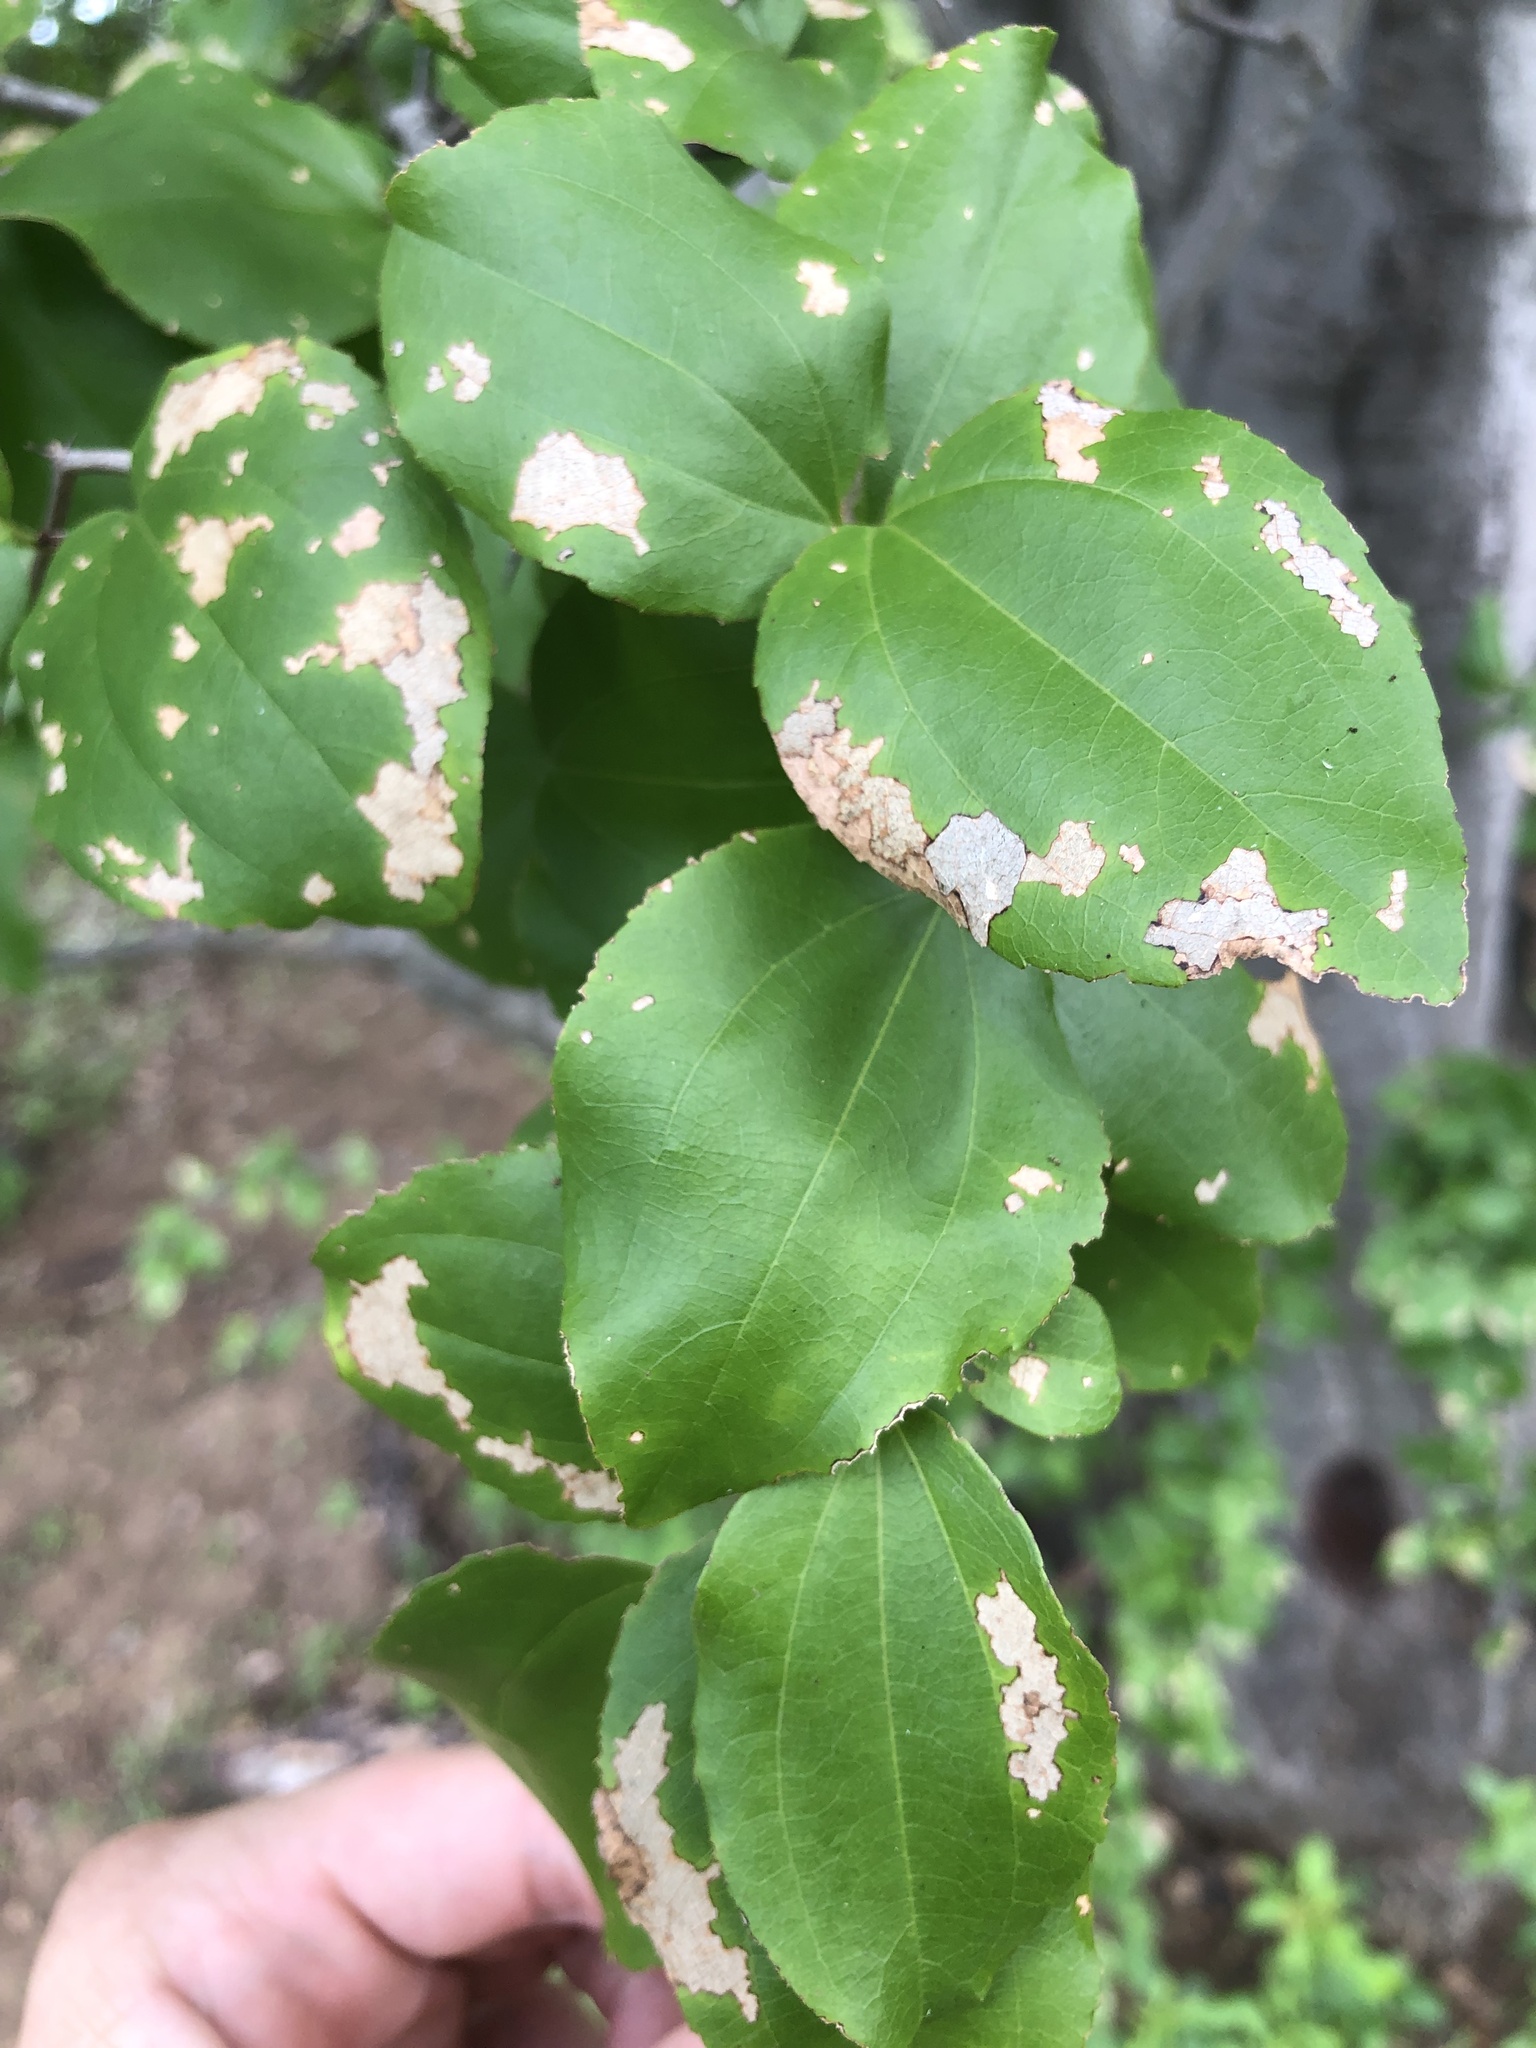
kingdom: Plantae
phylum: Tracheophyta
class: Magnoliopsida
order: Rosales
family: Rhamnaceae
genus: Sarcomphalus
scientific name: Sarcomphalus joazeiro
